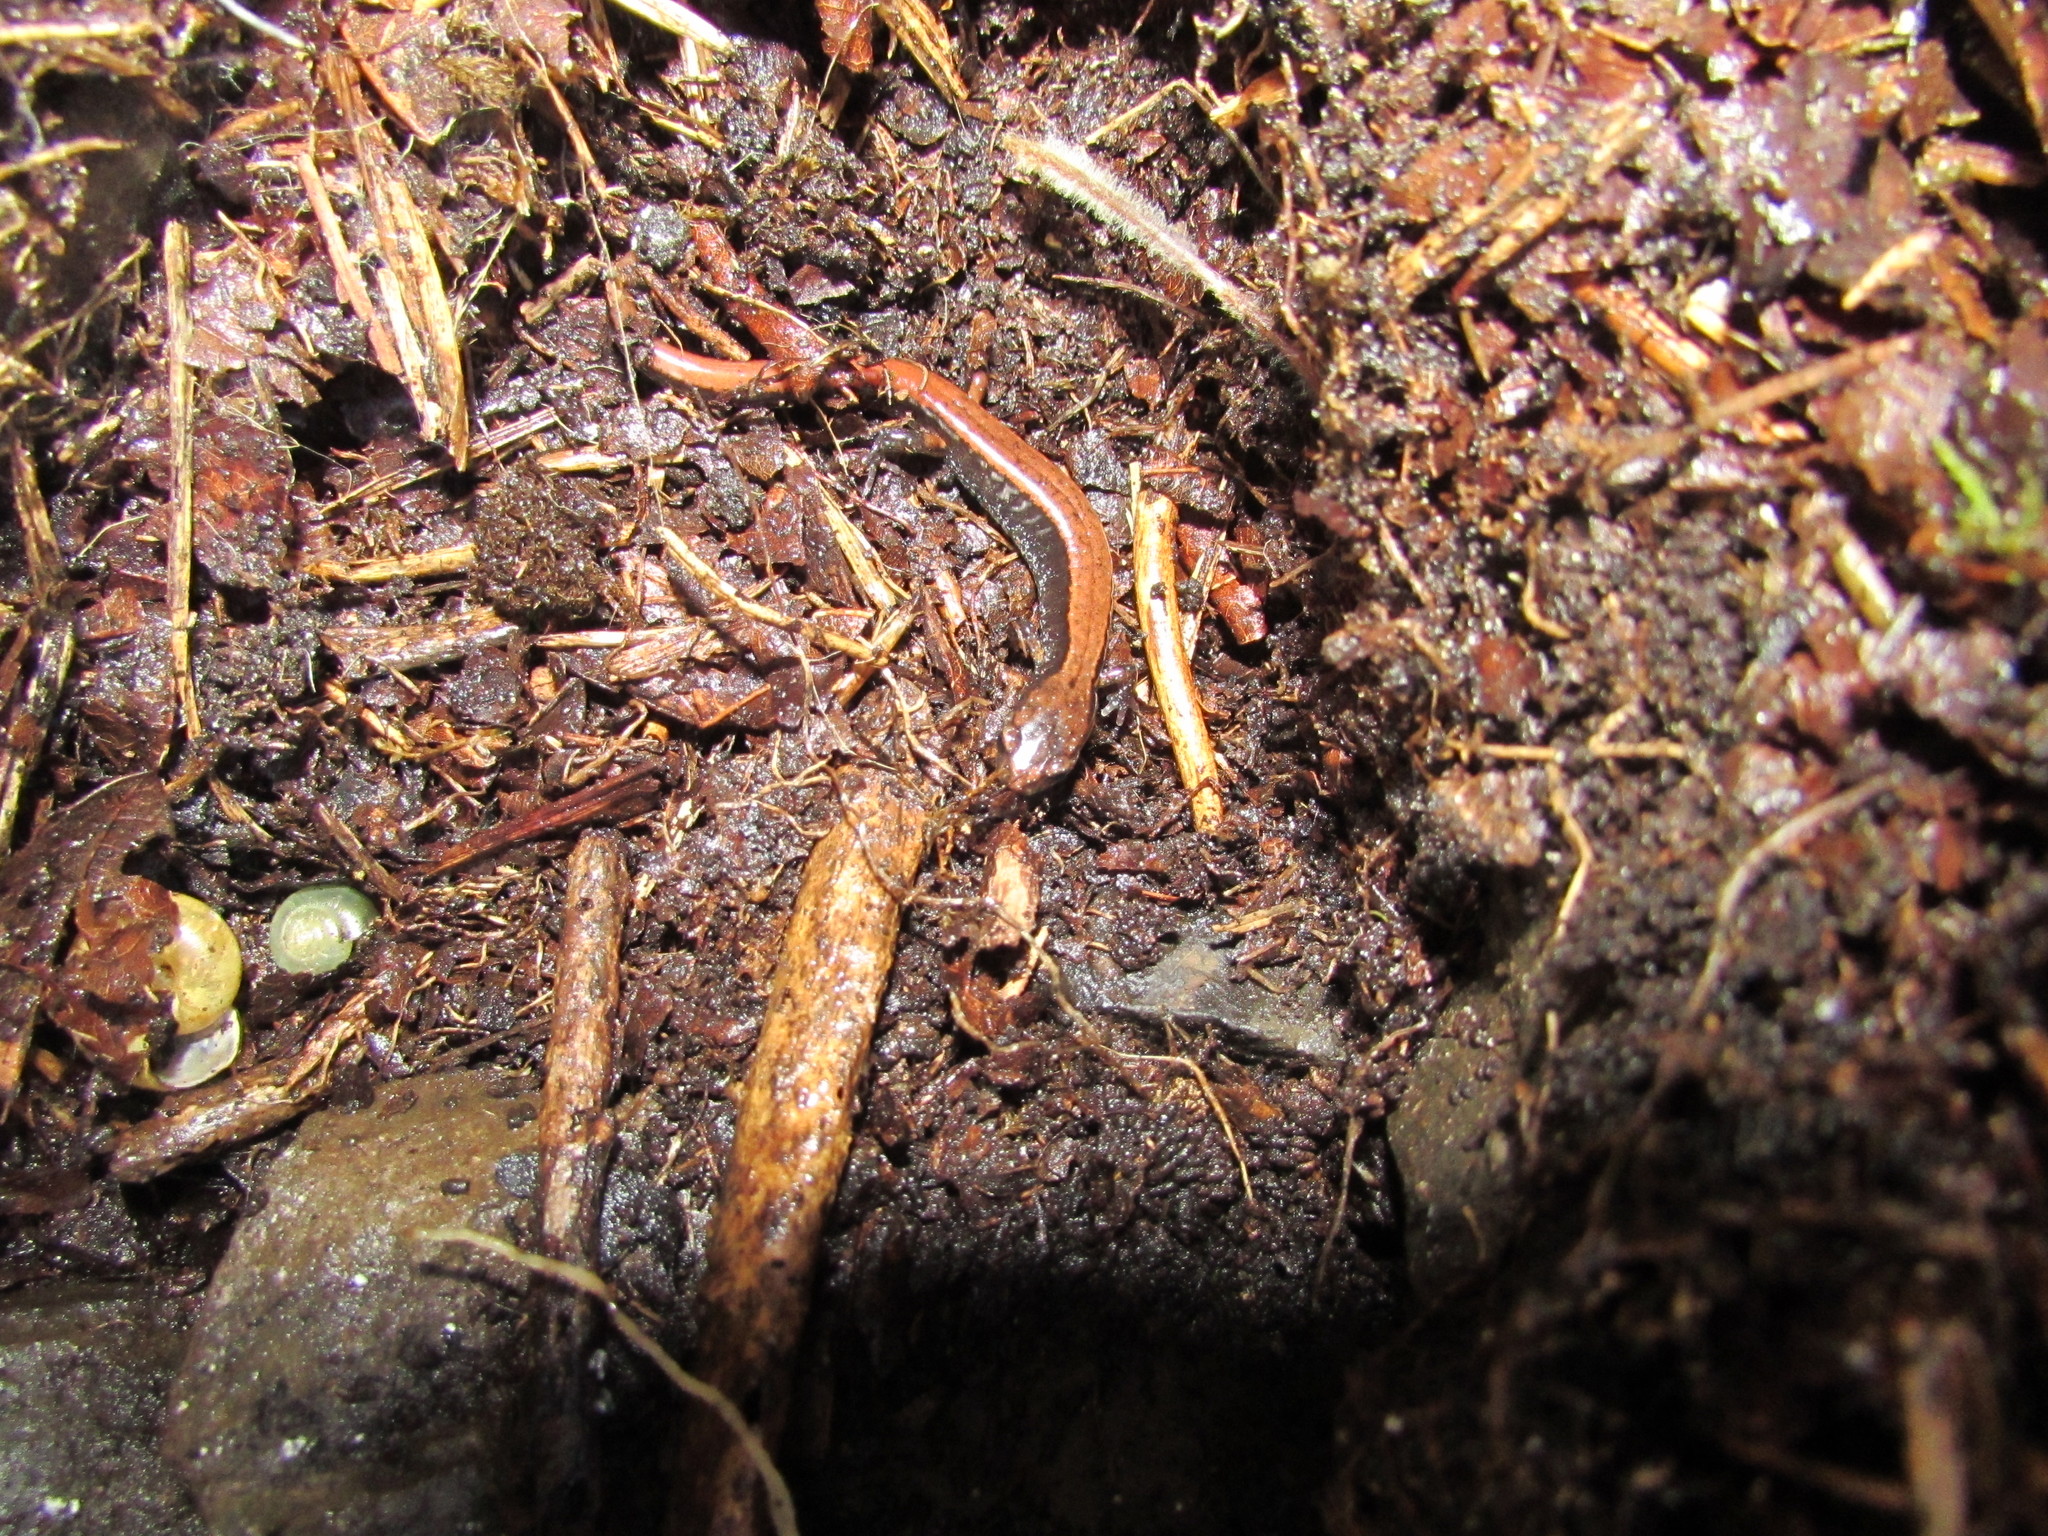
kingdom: Animalia
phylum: Chordata
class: Amphibia
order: Caudata
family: Plethodontidae
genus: Plethodon
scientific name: Plethodon vehiculum
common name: Western red-backed salamander
